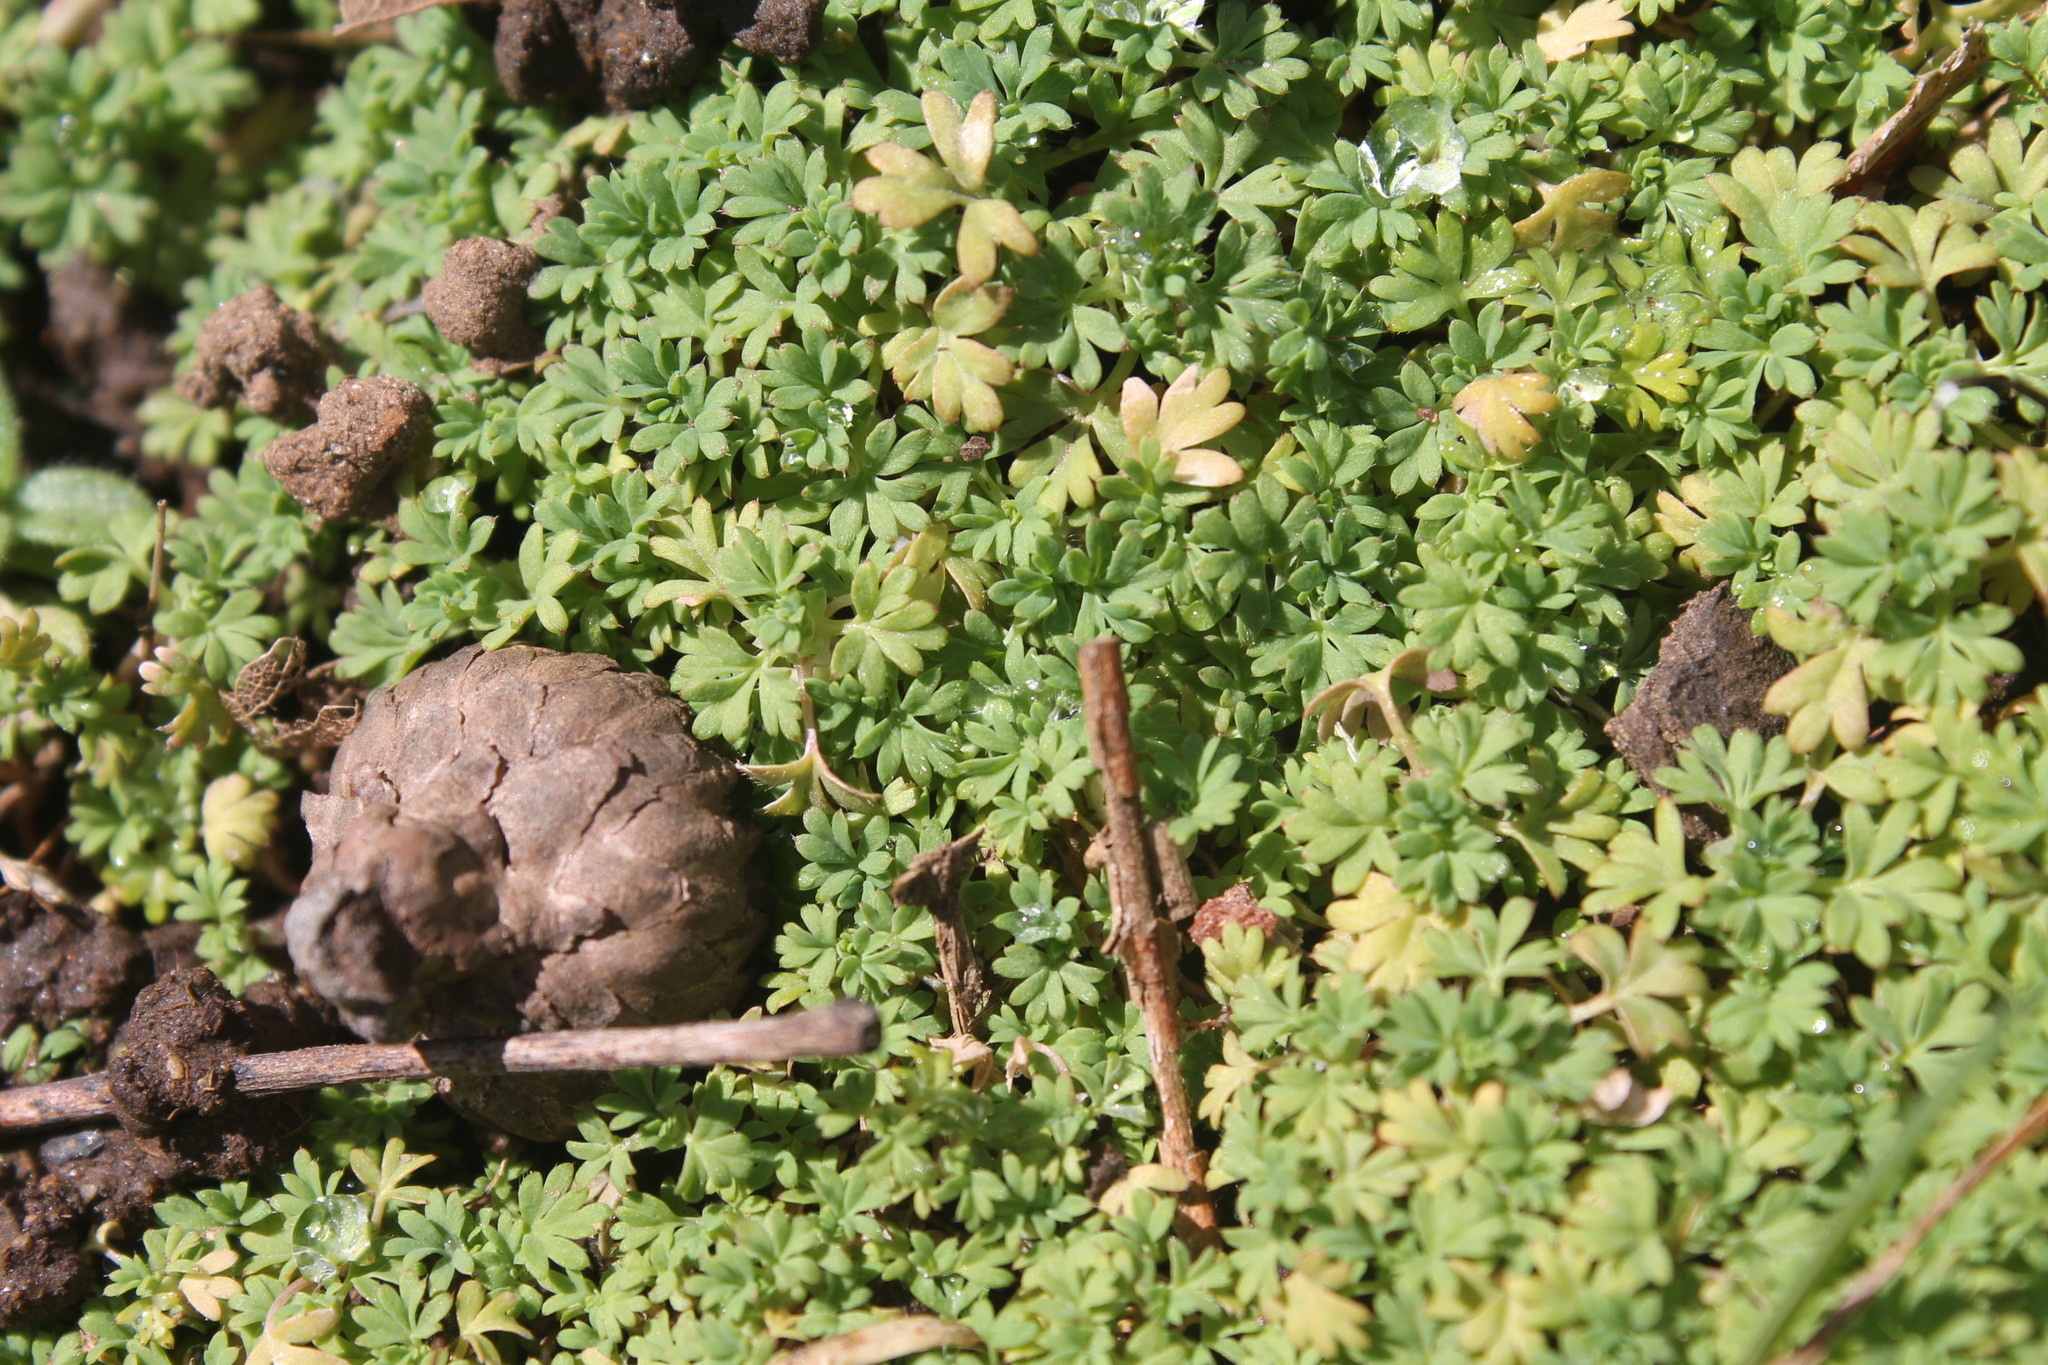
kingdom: Plantae
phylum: Tracheophyta
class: Magnoliopsida
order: Rosales
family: Rosaceae
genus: Aphanes
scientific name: Aphanes australis
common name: Slender parsley-piert
